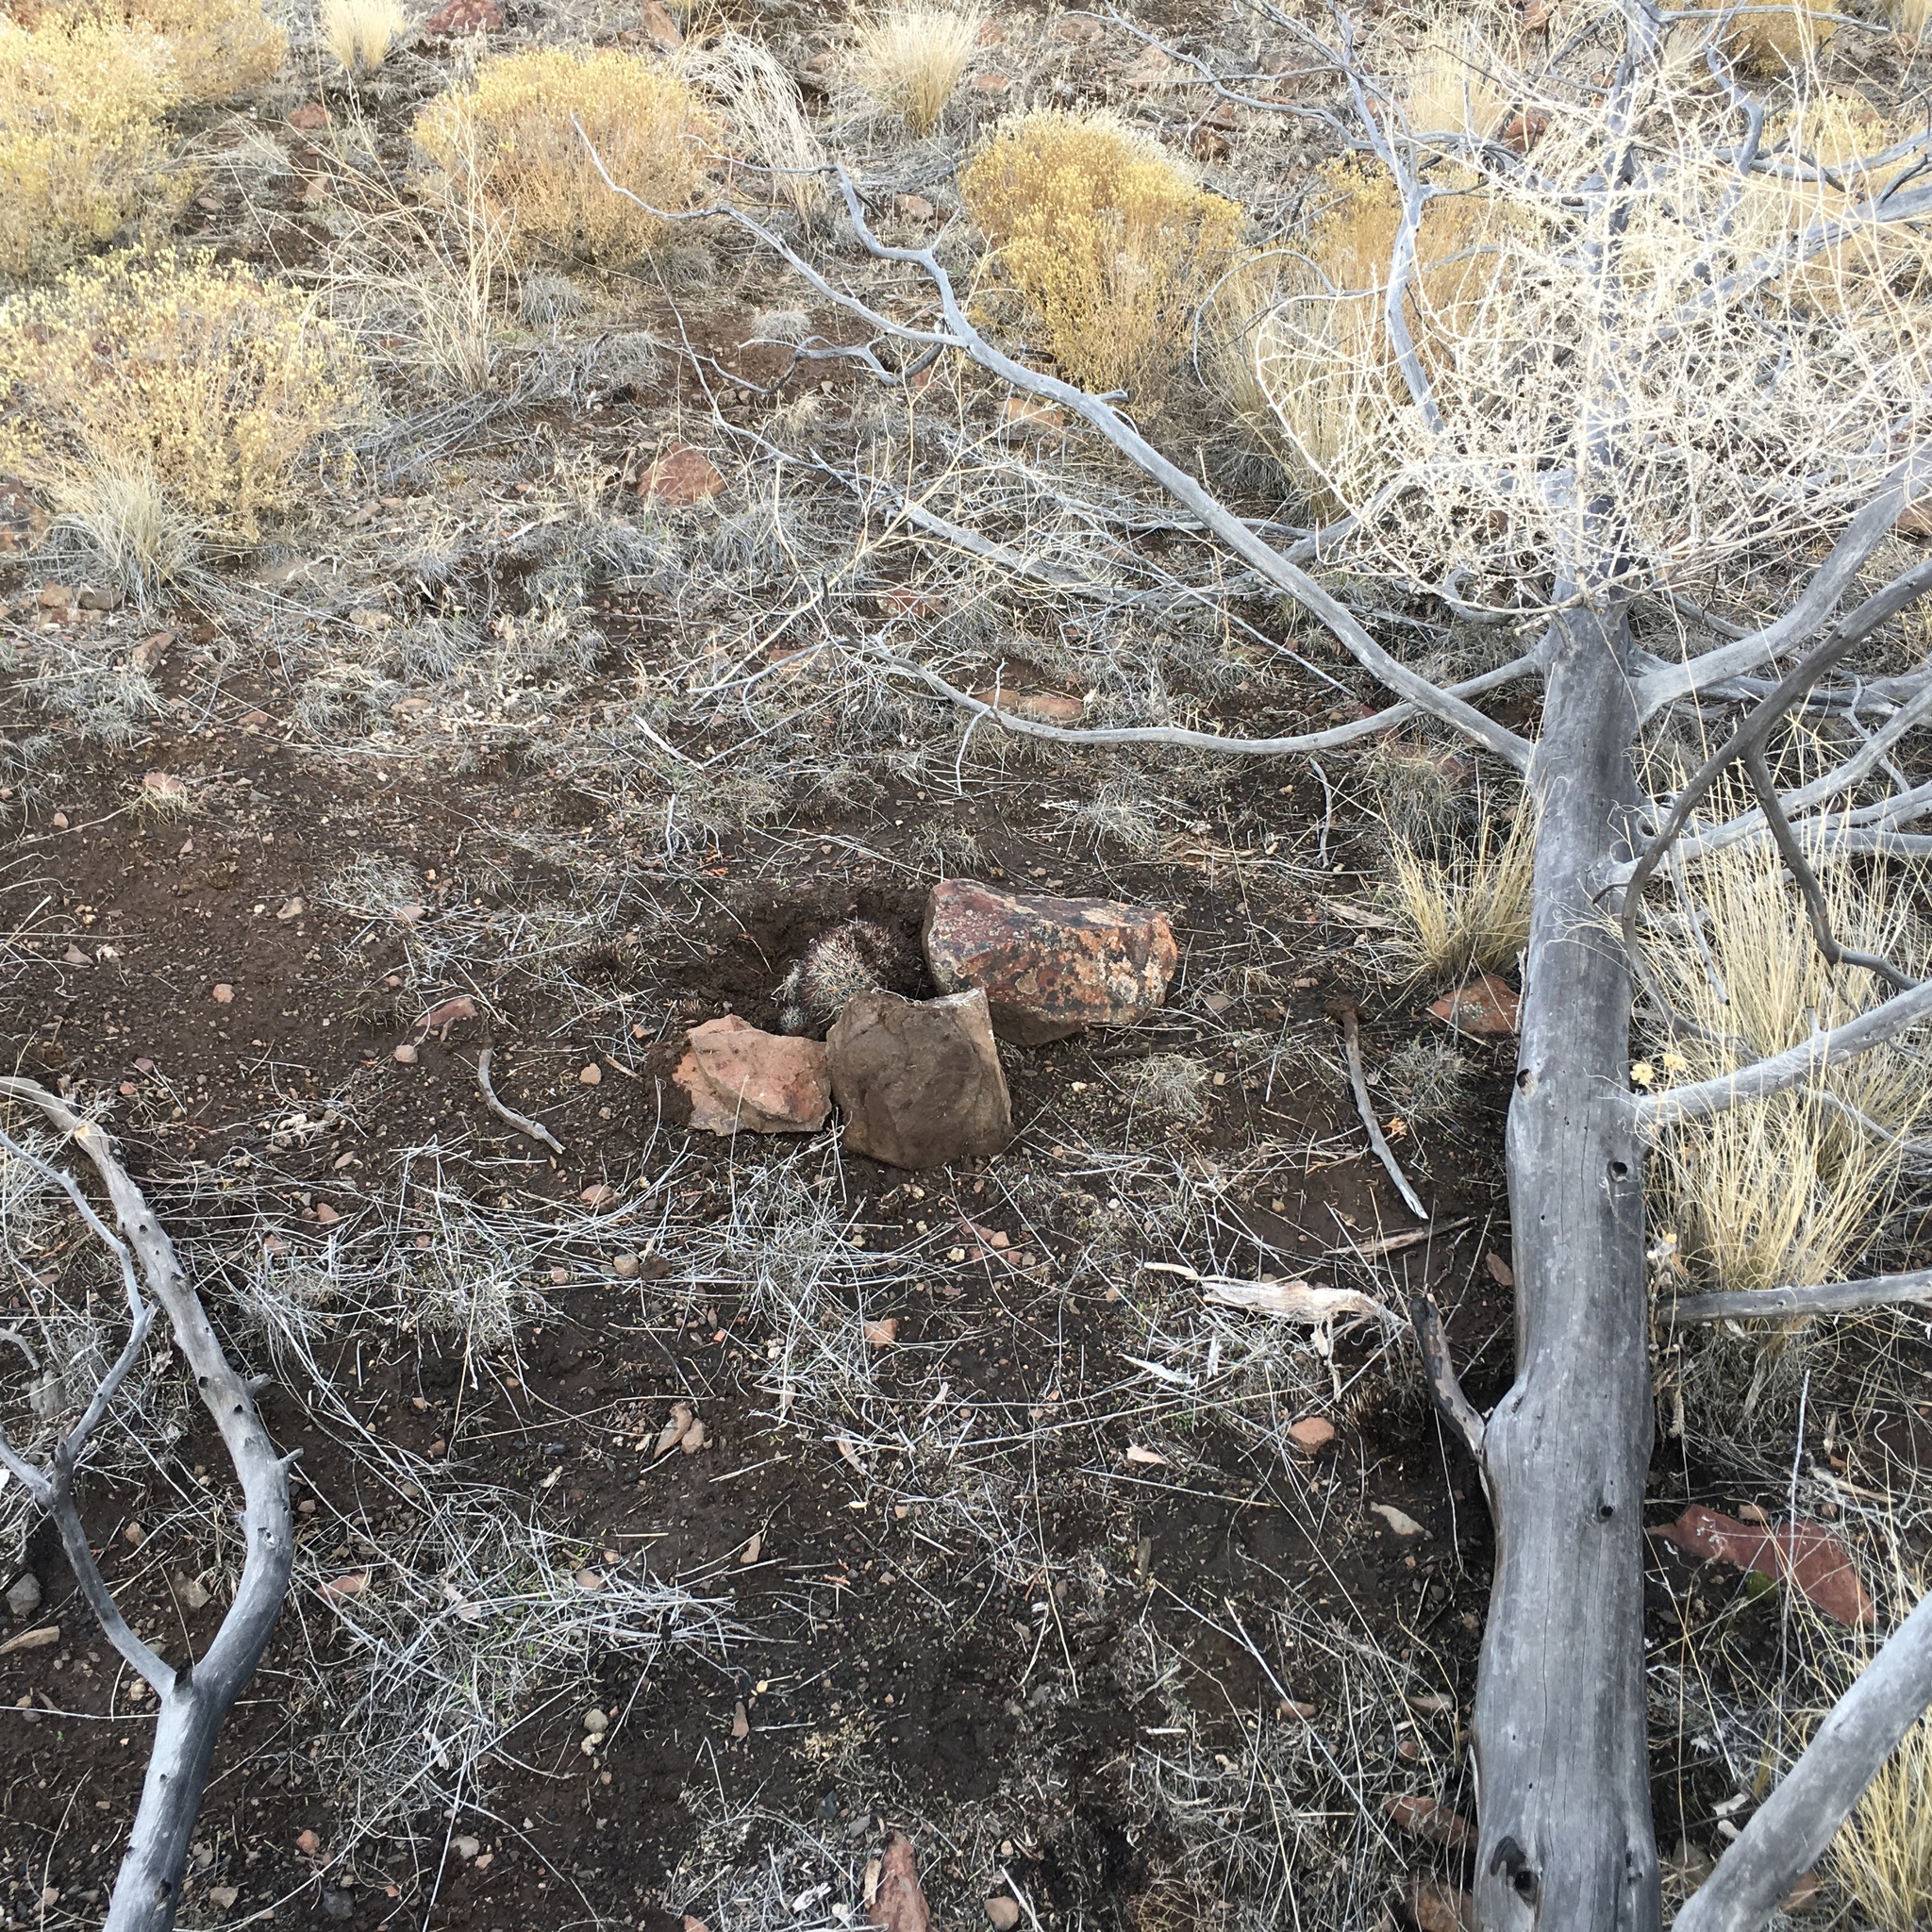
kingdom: Plantae
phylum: Tracheophyta
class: Magnoliopsida
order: Caryophyllales
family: Cactaceae
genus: Pediocactus
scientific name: Pediocactus nigrispinus
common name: Simpson's hedgehog cactus
